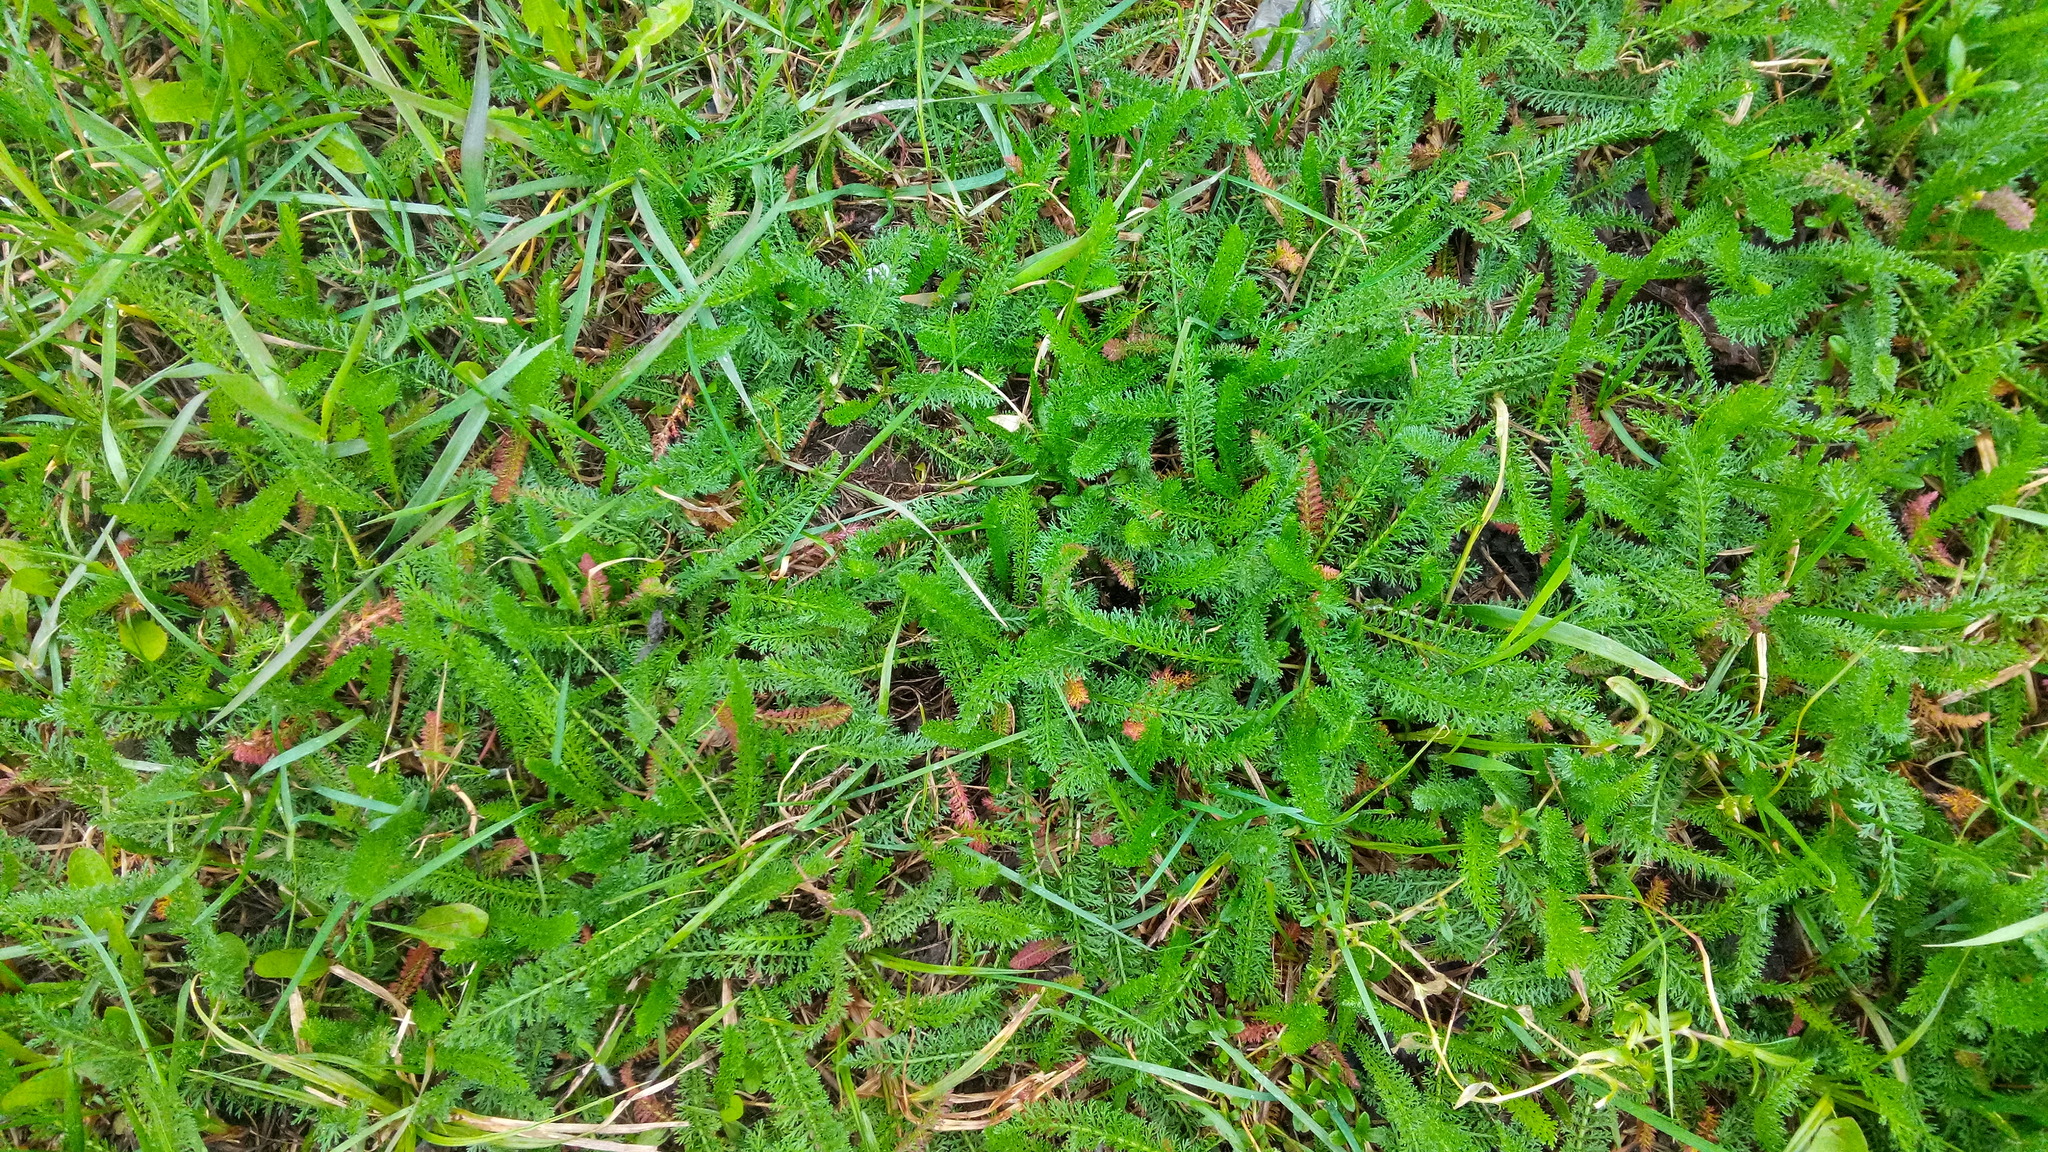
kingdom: Plantae
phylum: Tracheophyta
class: Magnoliopsida
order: Asterales
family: Asteraceae
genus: Achillea
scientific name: Achillea millefolium
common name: Yarrow
